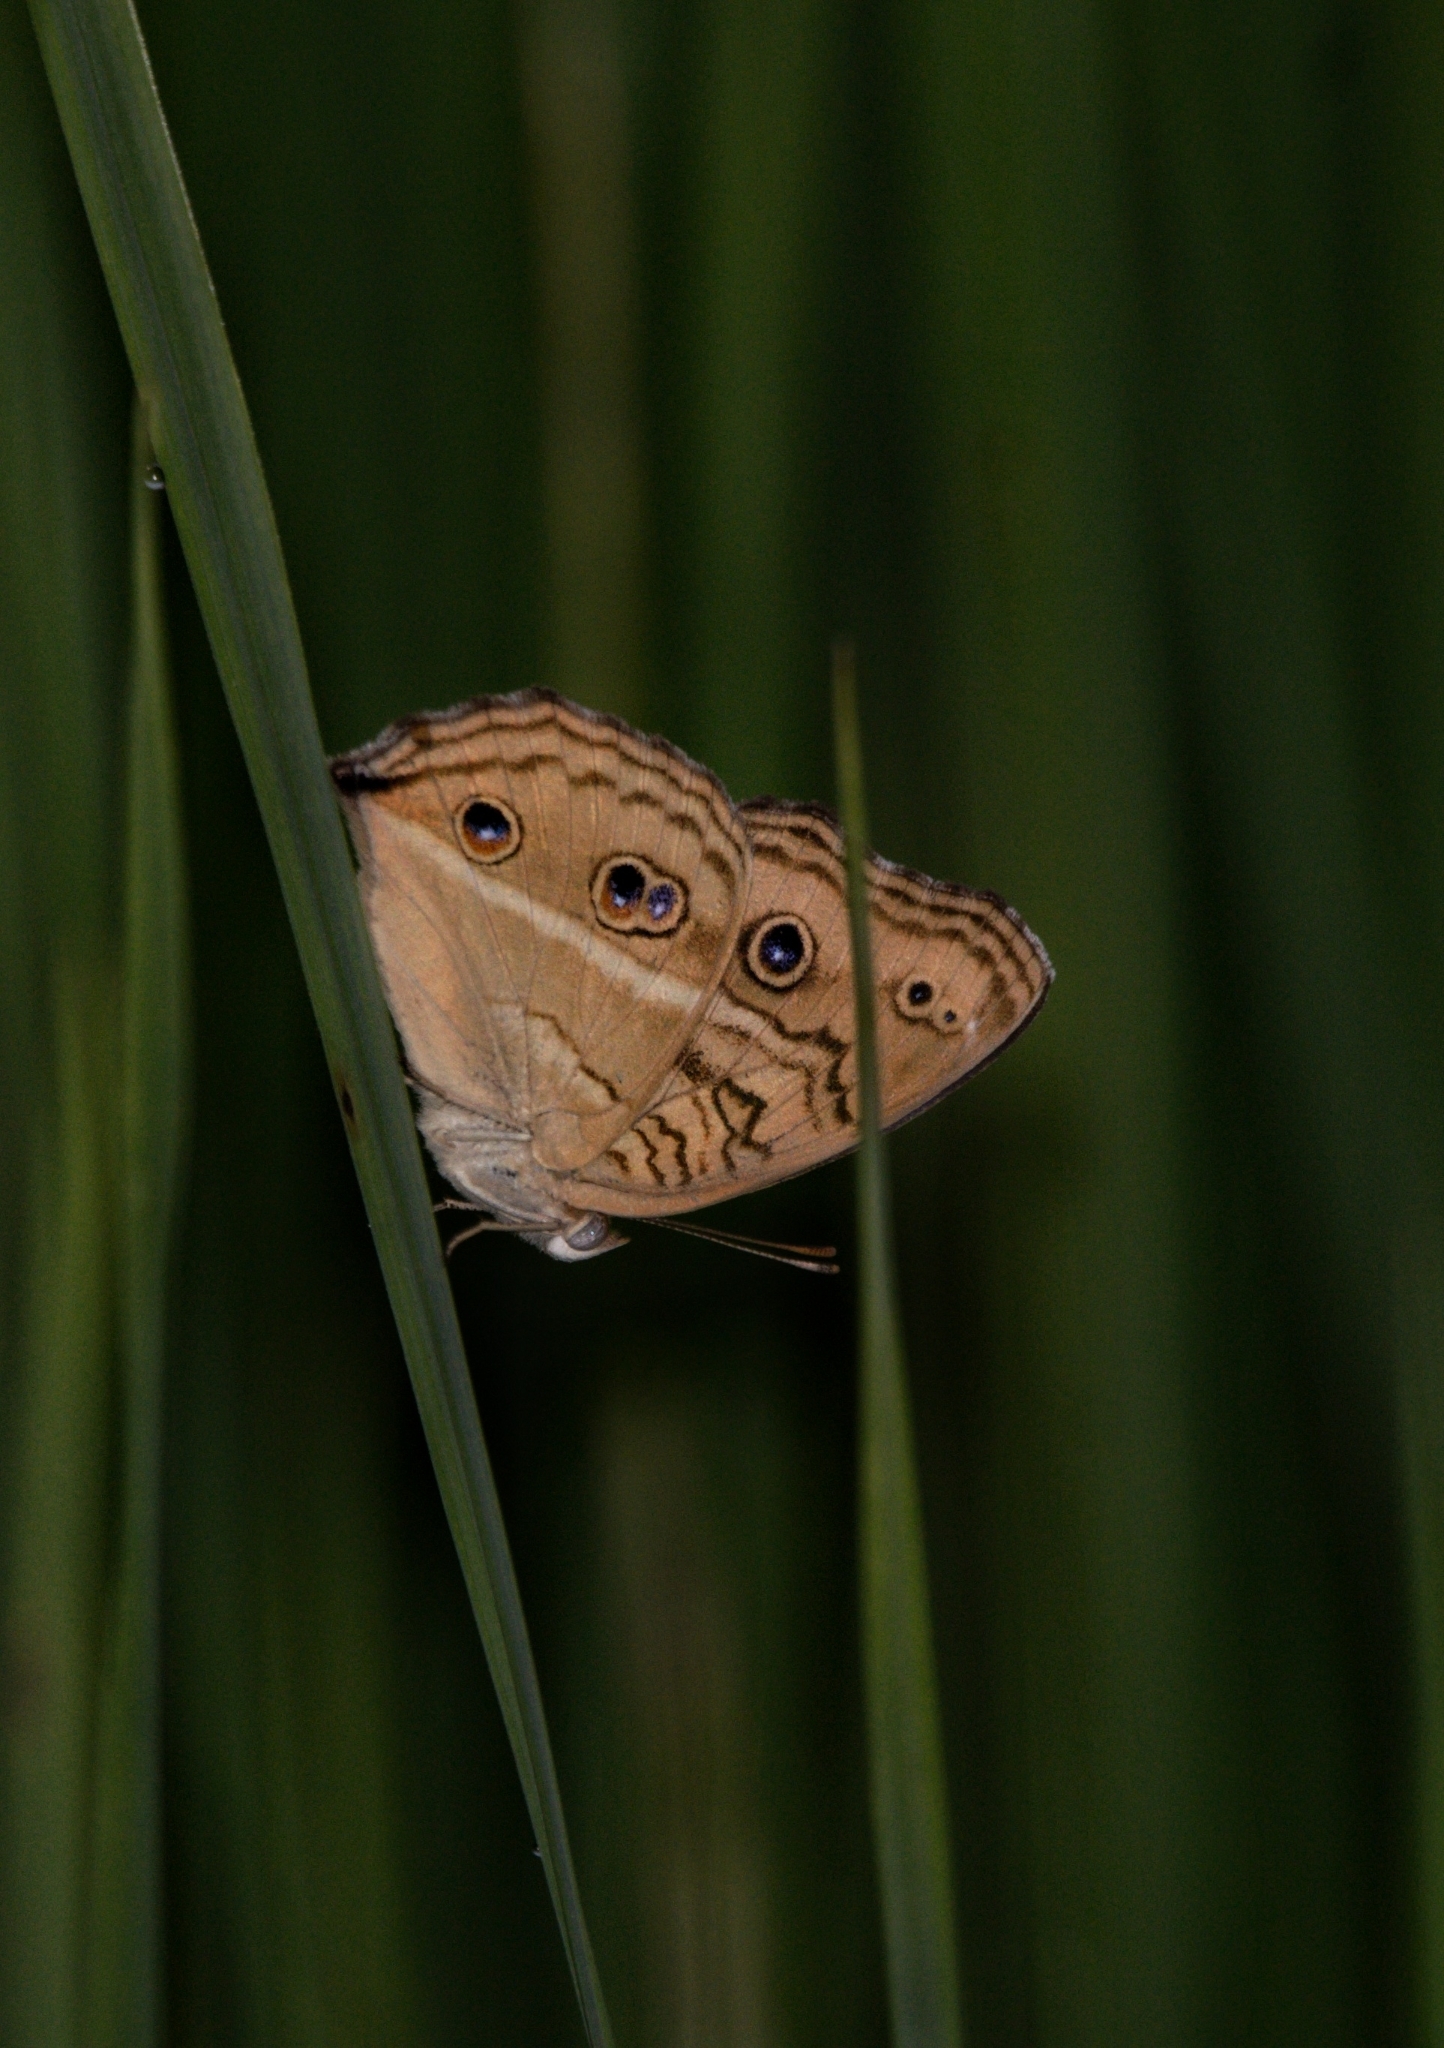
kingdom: Animalia
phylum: Arthropoda
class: Insecta
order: Lepidoptera
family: Nymphalidae
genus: Junonia
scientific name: Junonia almana
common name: Peacock pansy
